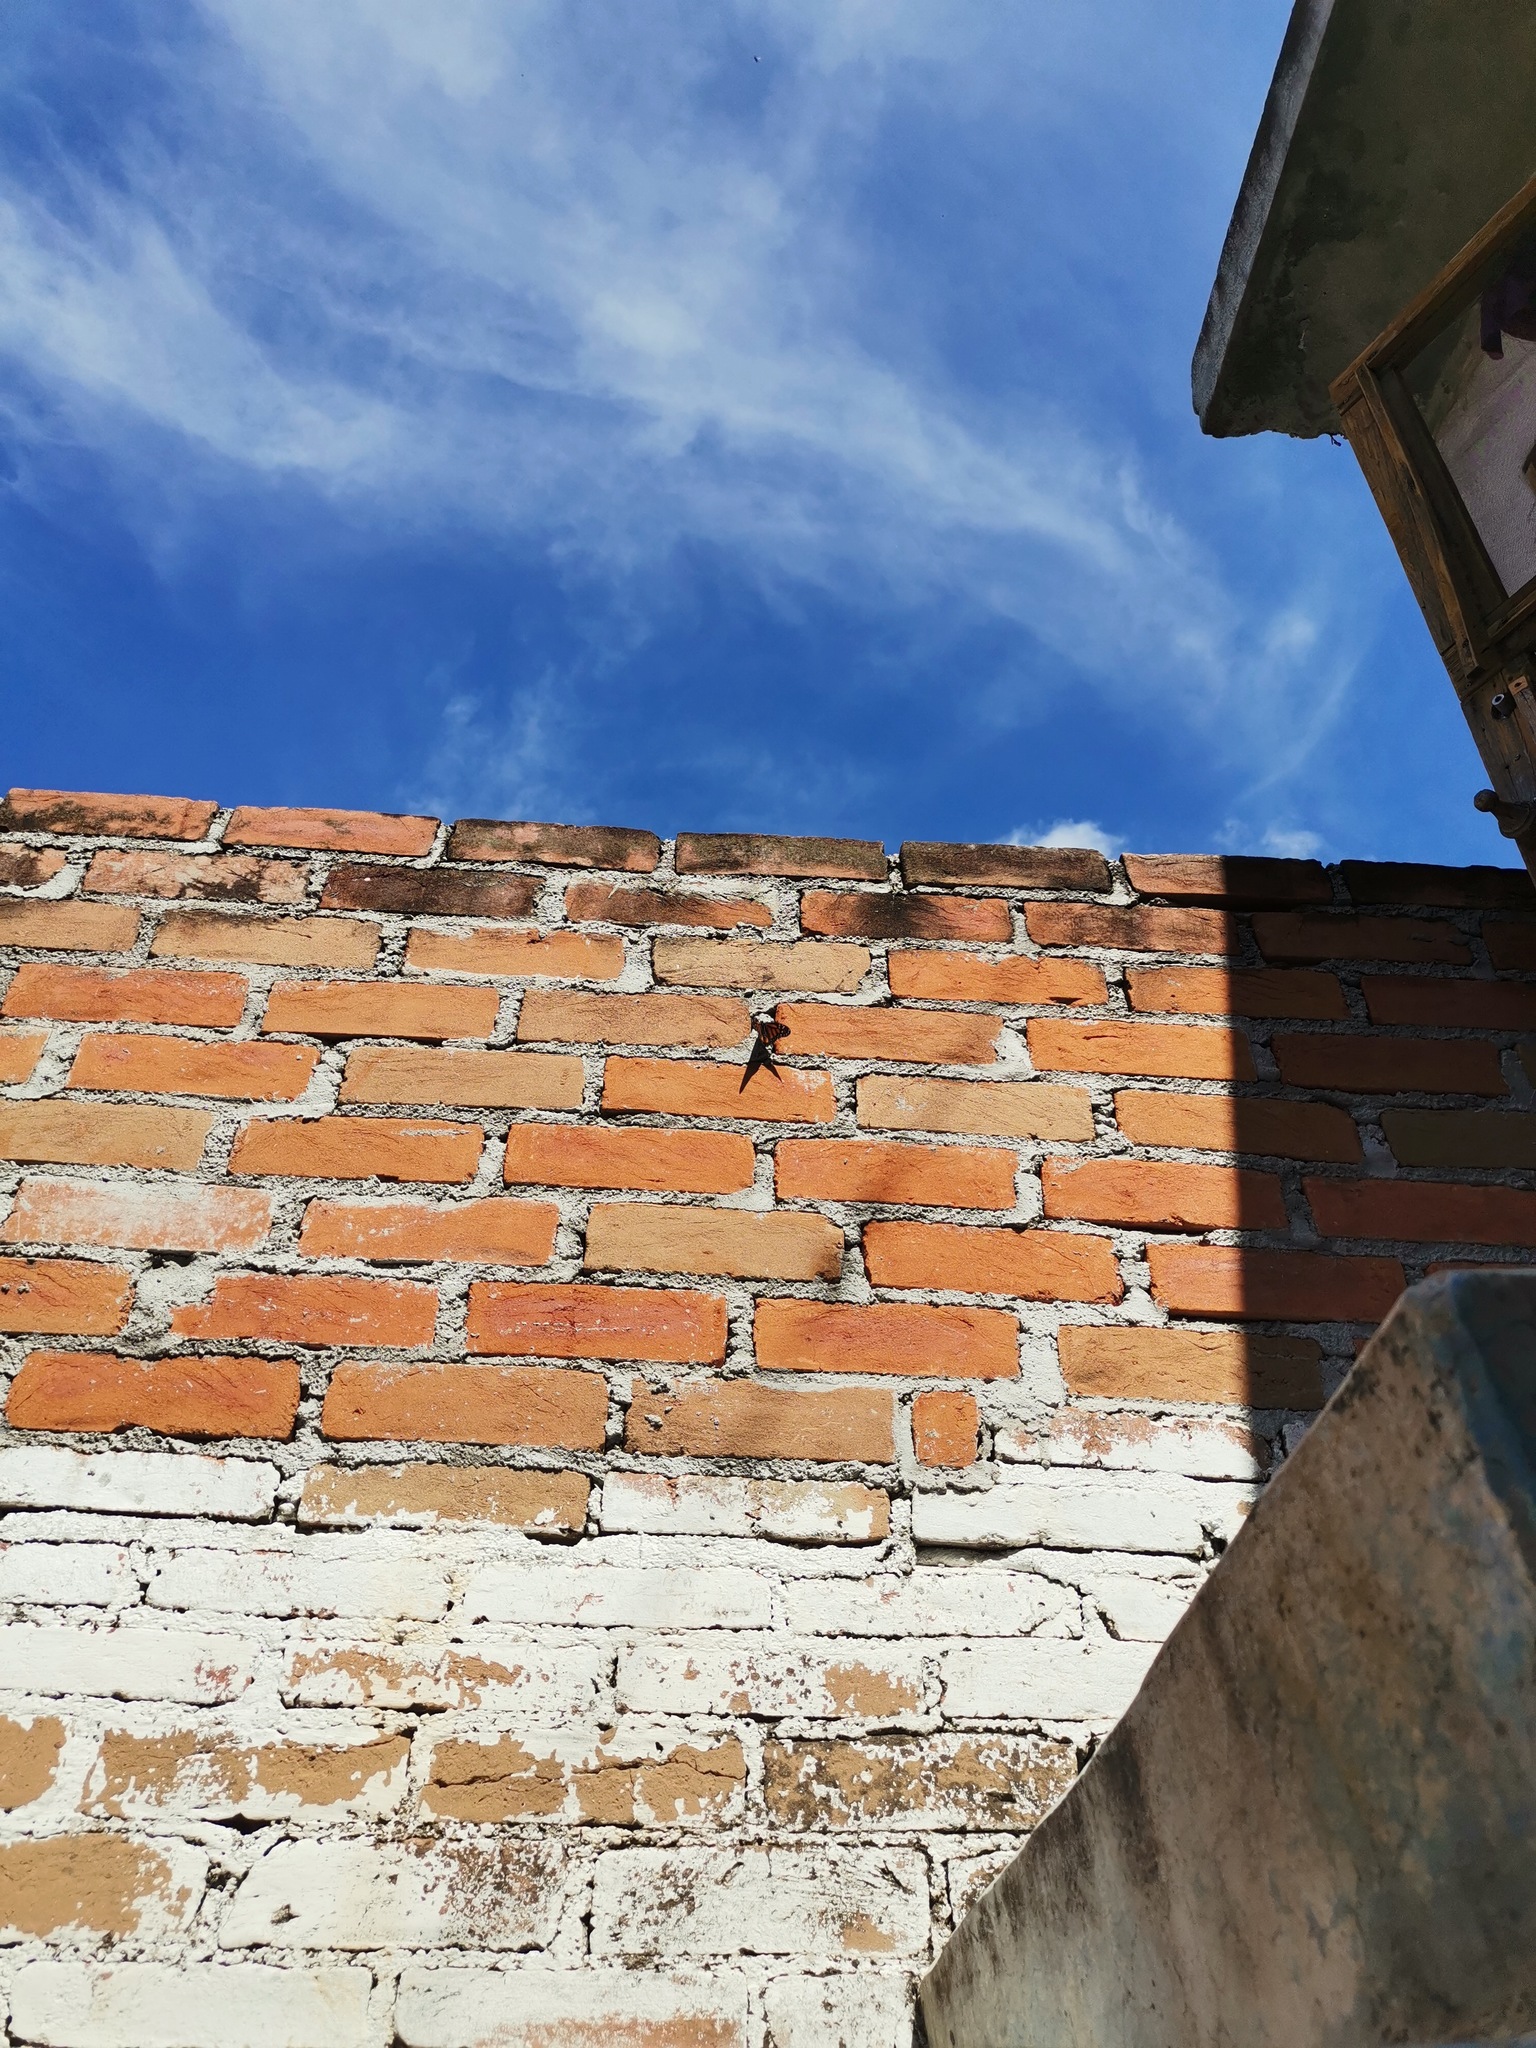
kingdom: Animalia
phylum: Arthropoda
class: Insecta
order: Lepidoptera
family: Nymphalidae
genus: Danaus
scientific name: Danaus plexippus
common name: Monarch
